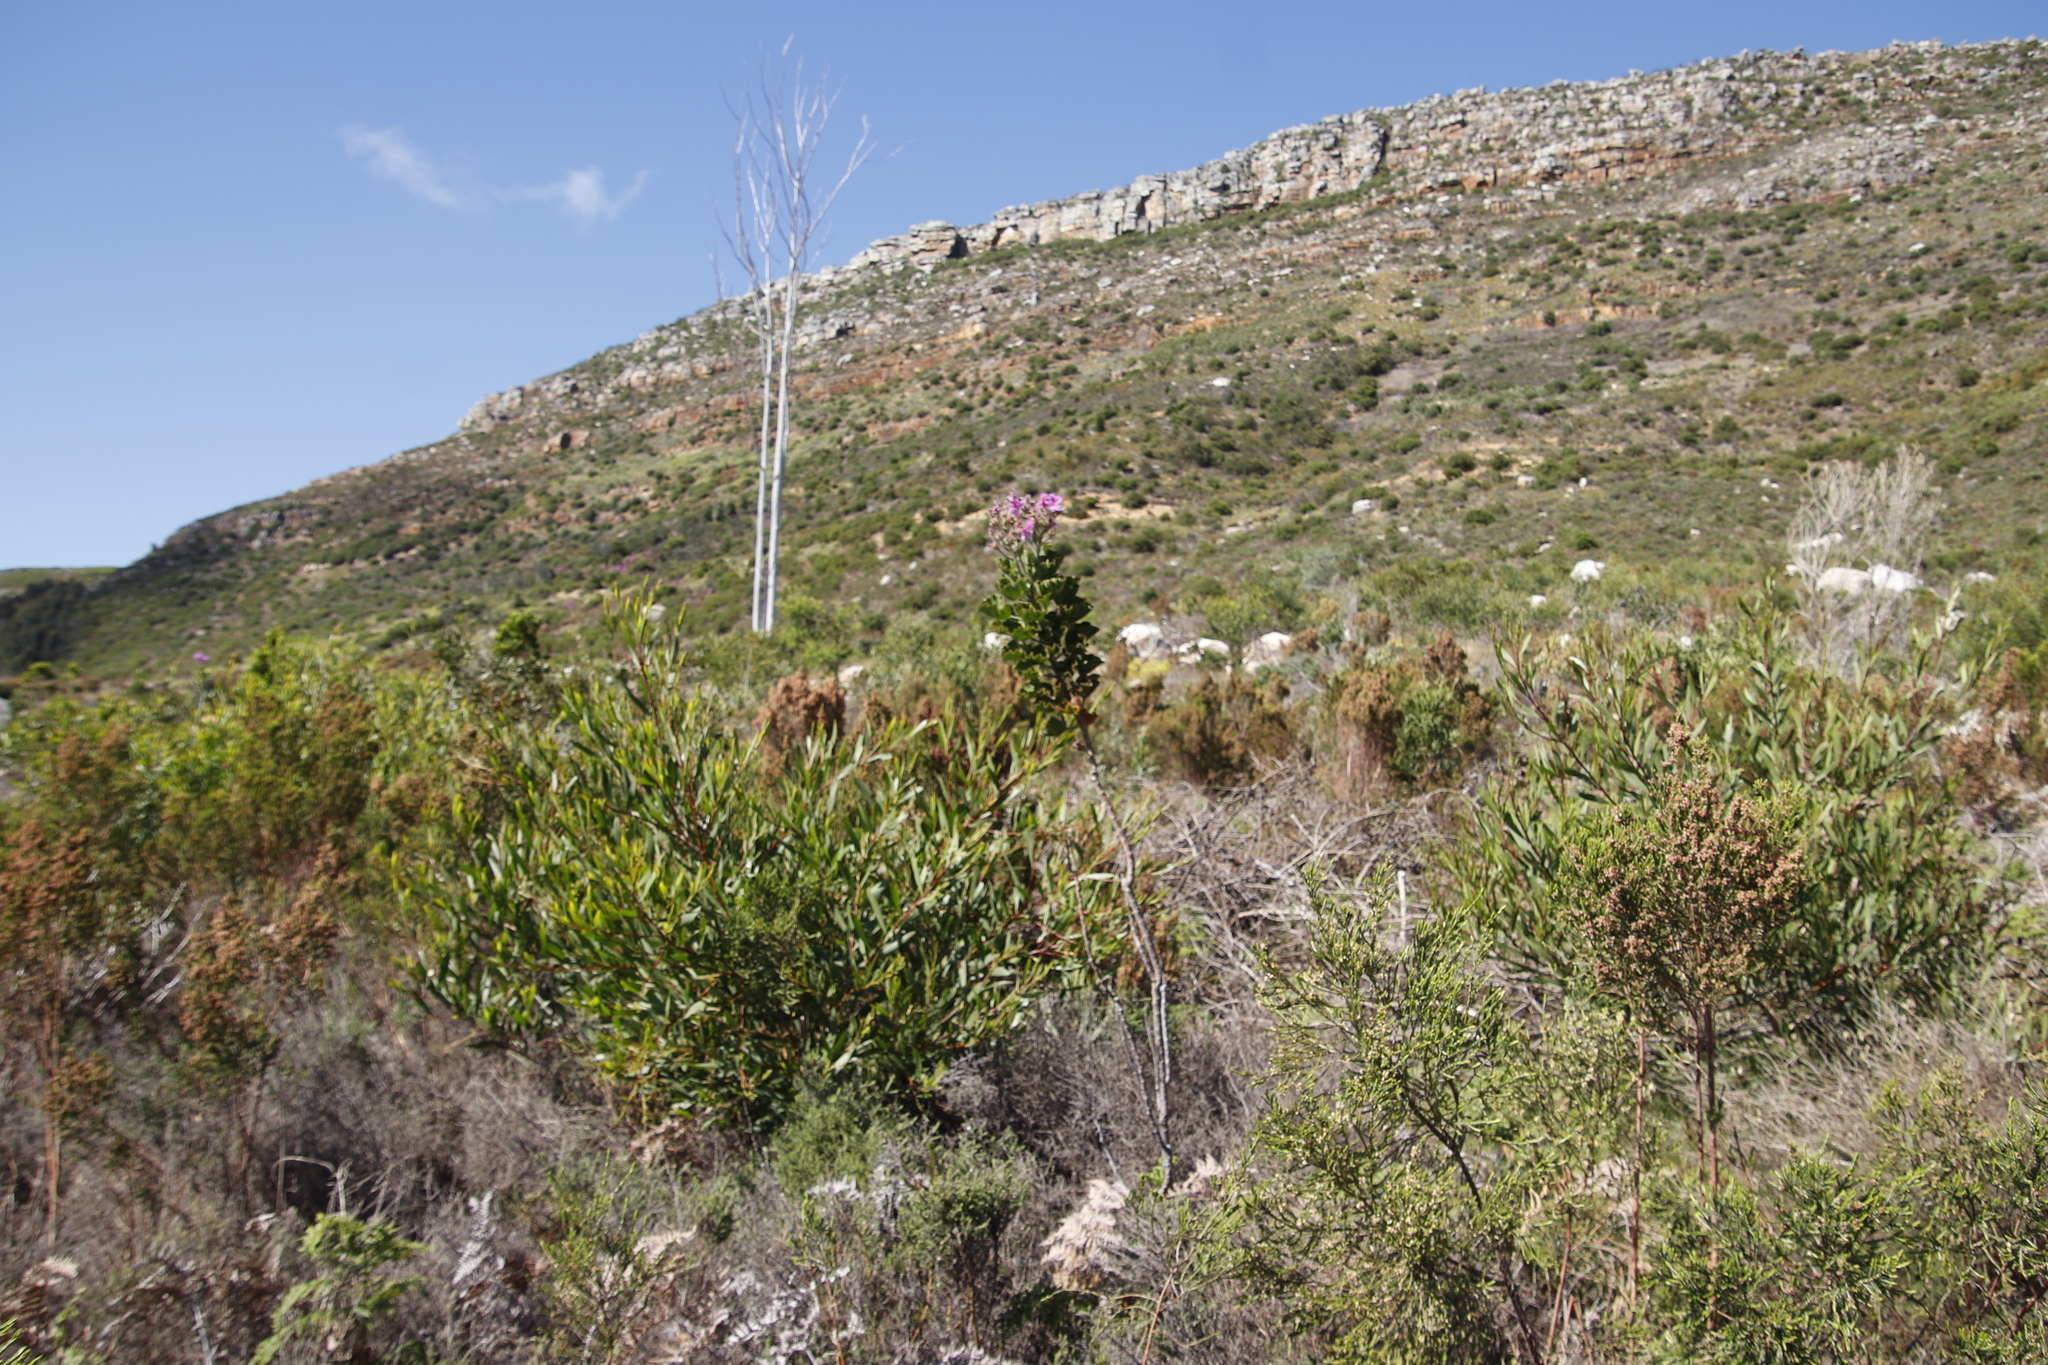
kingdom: Plantae
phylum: Tracheophyta
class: Magnoliopsida
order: Geraniales
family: Geraniaceae
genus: Pelargonium
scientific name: Pelargonium cucullatum
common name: Tree pelargonium
